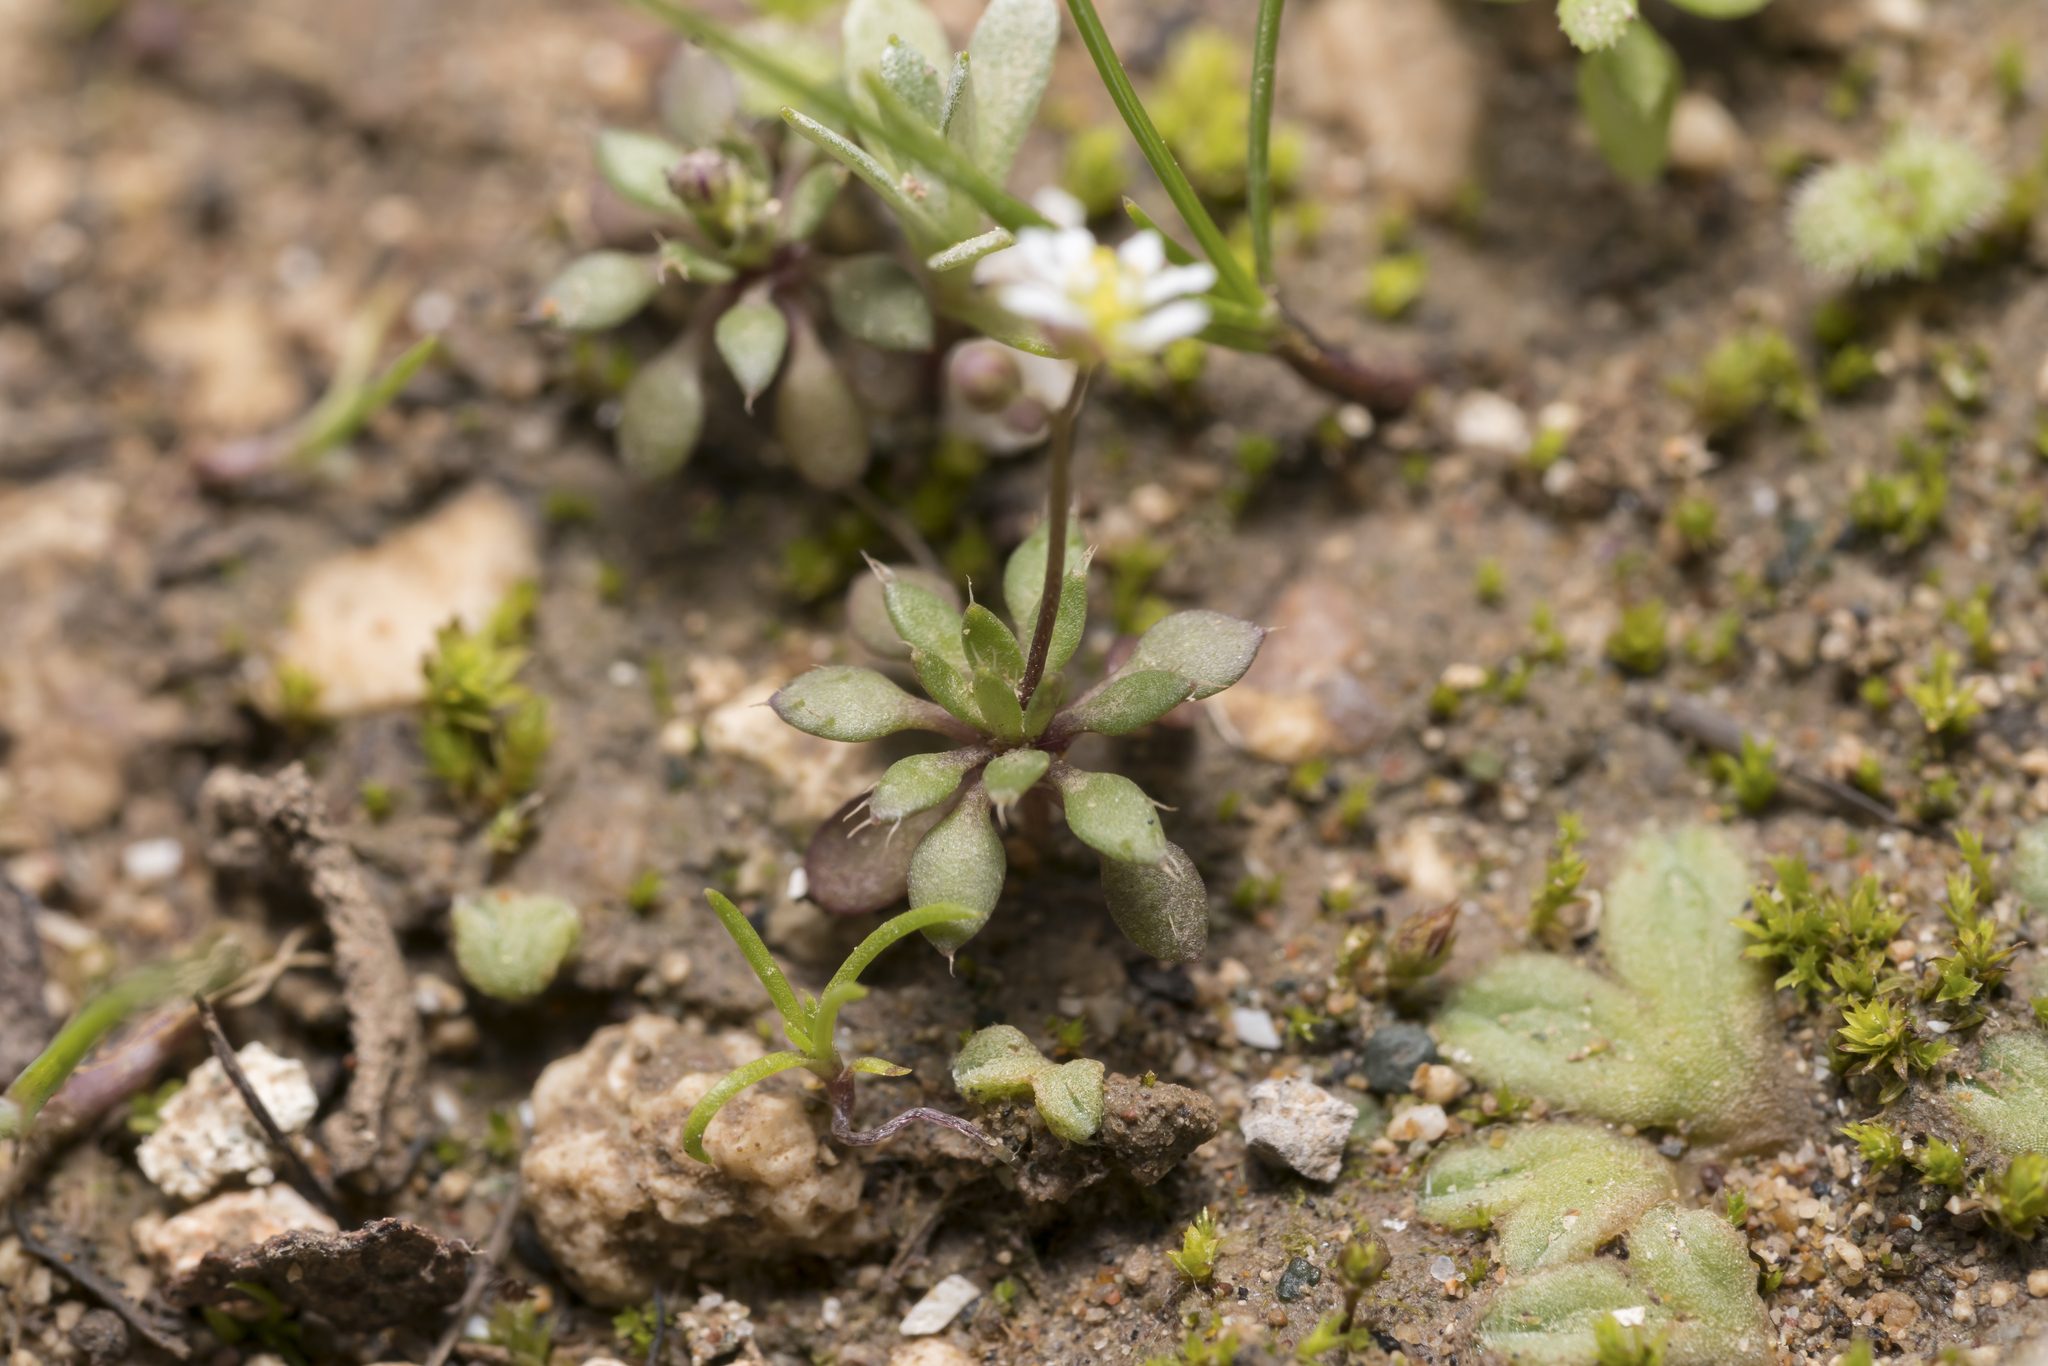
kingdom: Plantae
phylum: Tracheophyta
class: Magnoliopsida
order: Brassicales
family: Brassicaceae
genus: Draba
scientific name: Draba verna
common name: Spring draba
